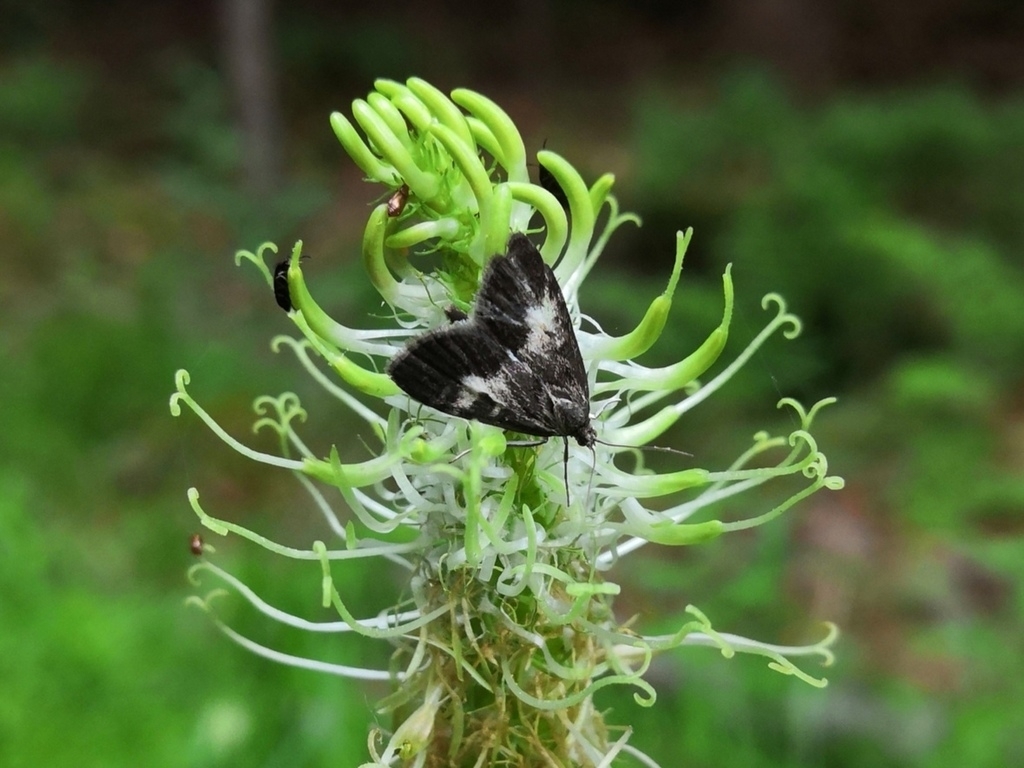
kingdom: Animalia
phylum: Arthropoda
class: Insecta
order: Lepidoptera
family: Crambidae
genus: Udea
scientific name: Udea hamalis
